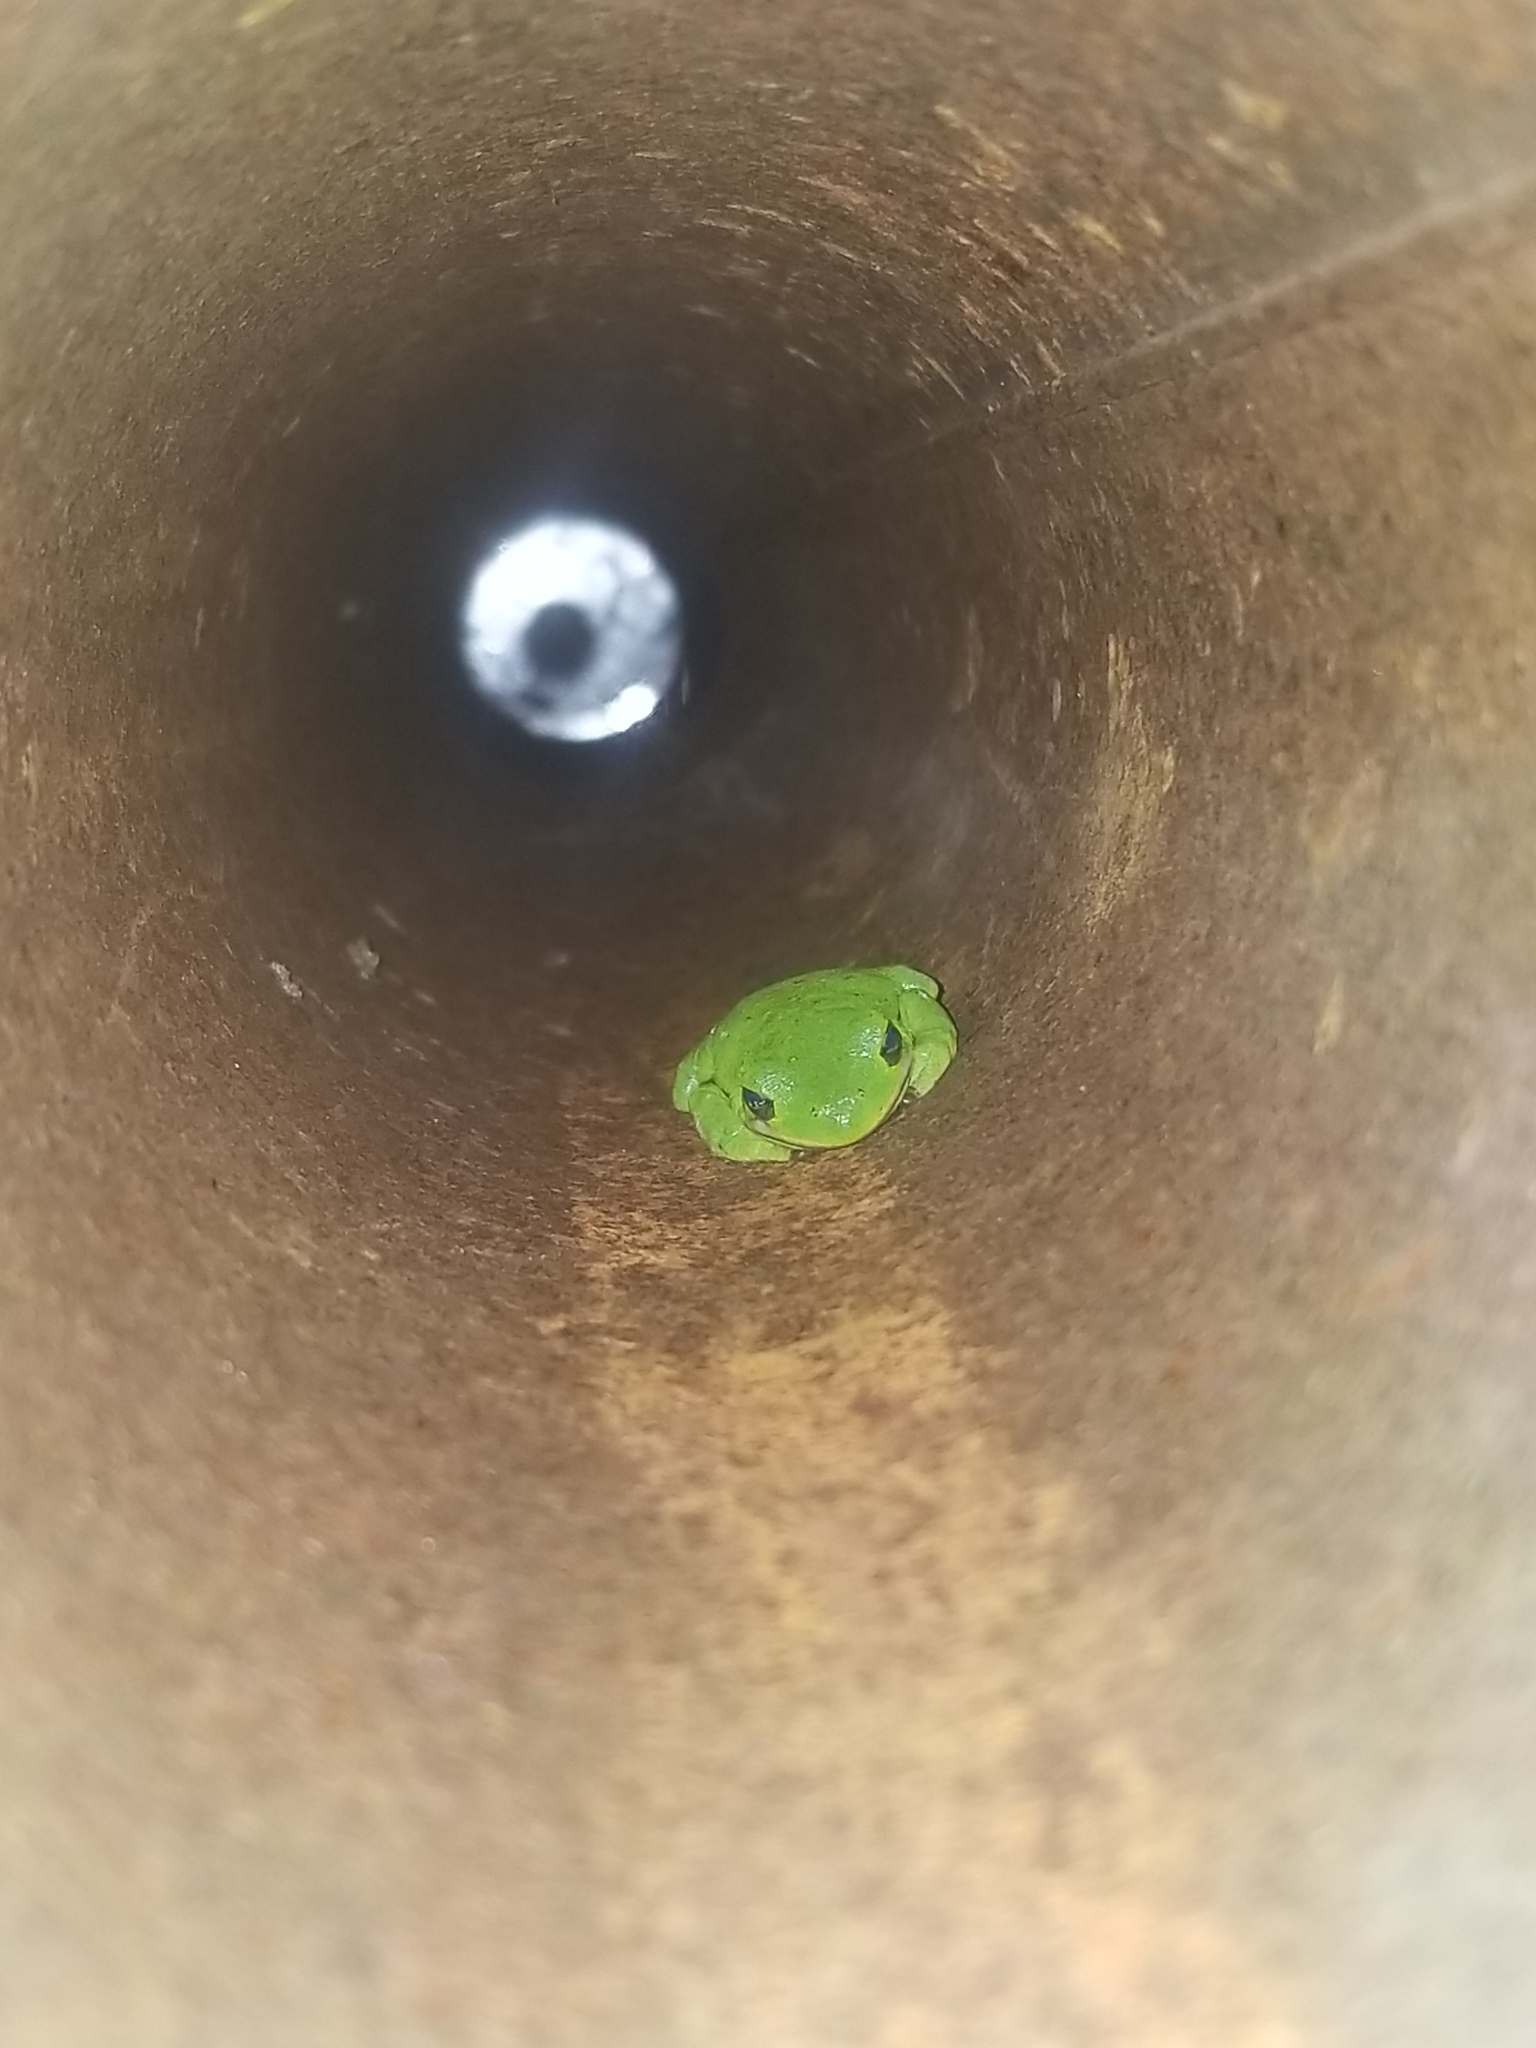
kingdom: Animalia
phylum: Chordata
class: Amphibia
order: Anura
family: Hylidae
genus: Hyla
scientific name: Hyla
